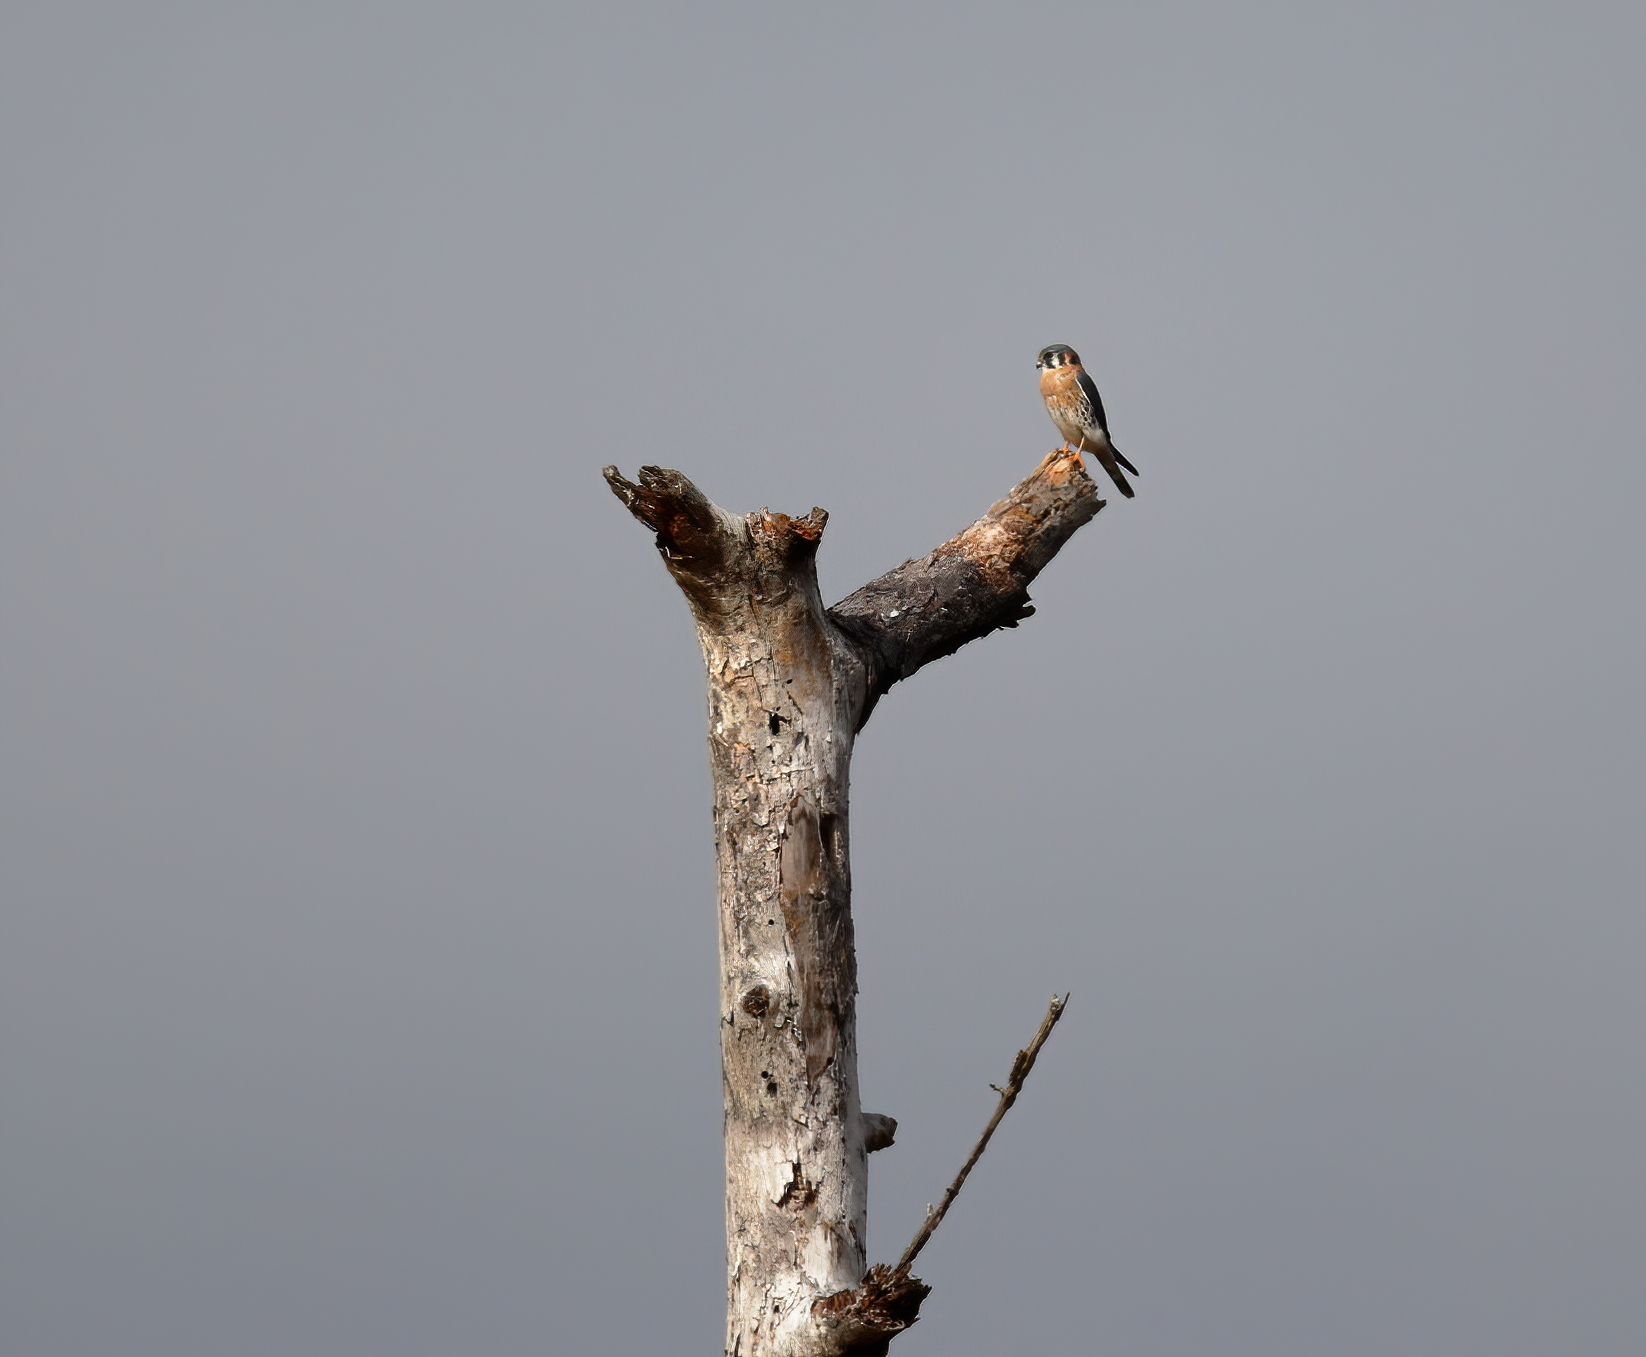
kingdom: Animalia
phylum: Chordata
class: Aves
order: Falconiformes
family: Falconidae
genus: Falco
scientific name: Falco sparverius
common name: American kestrel
